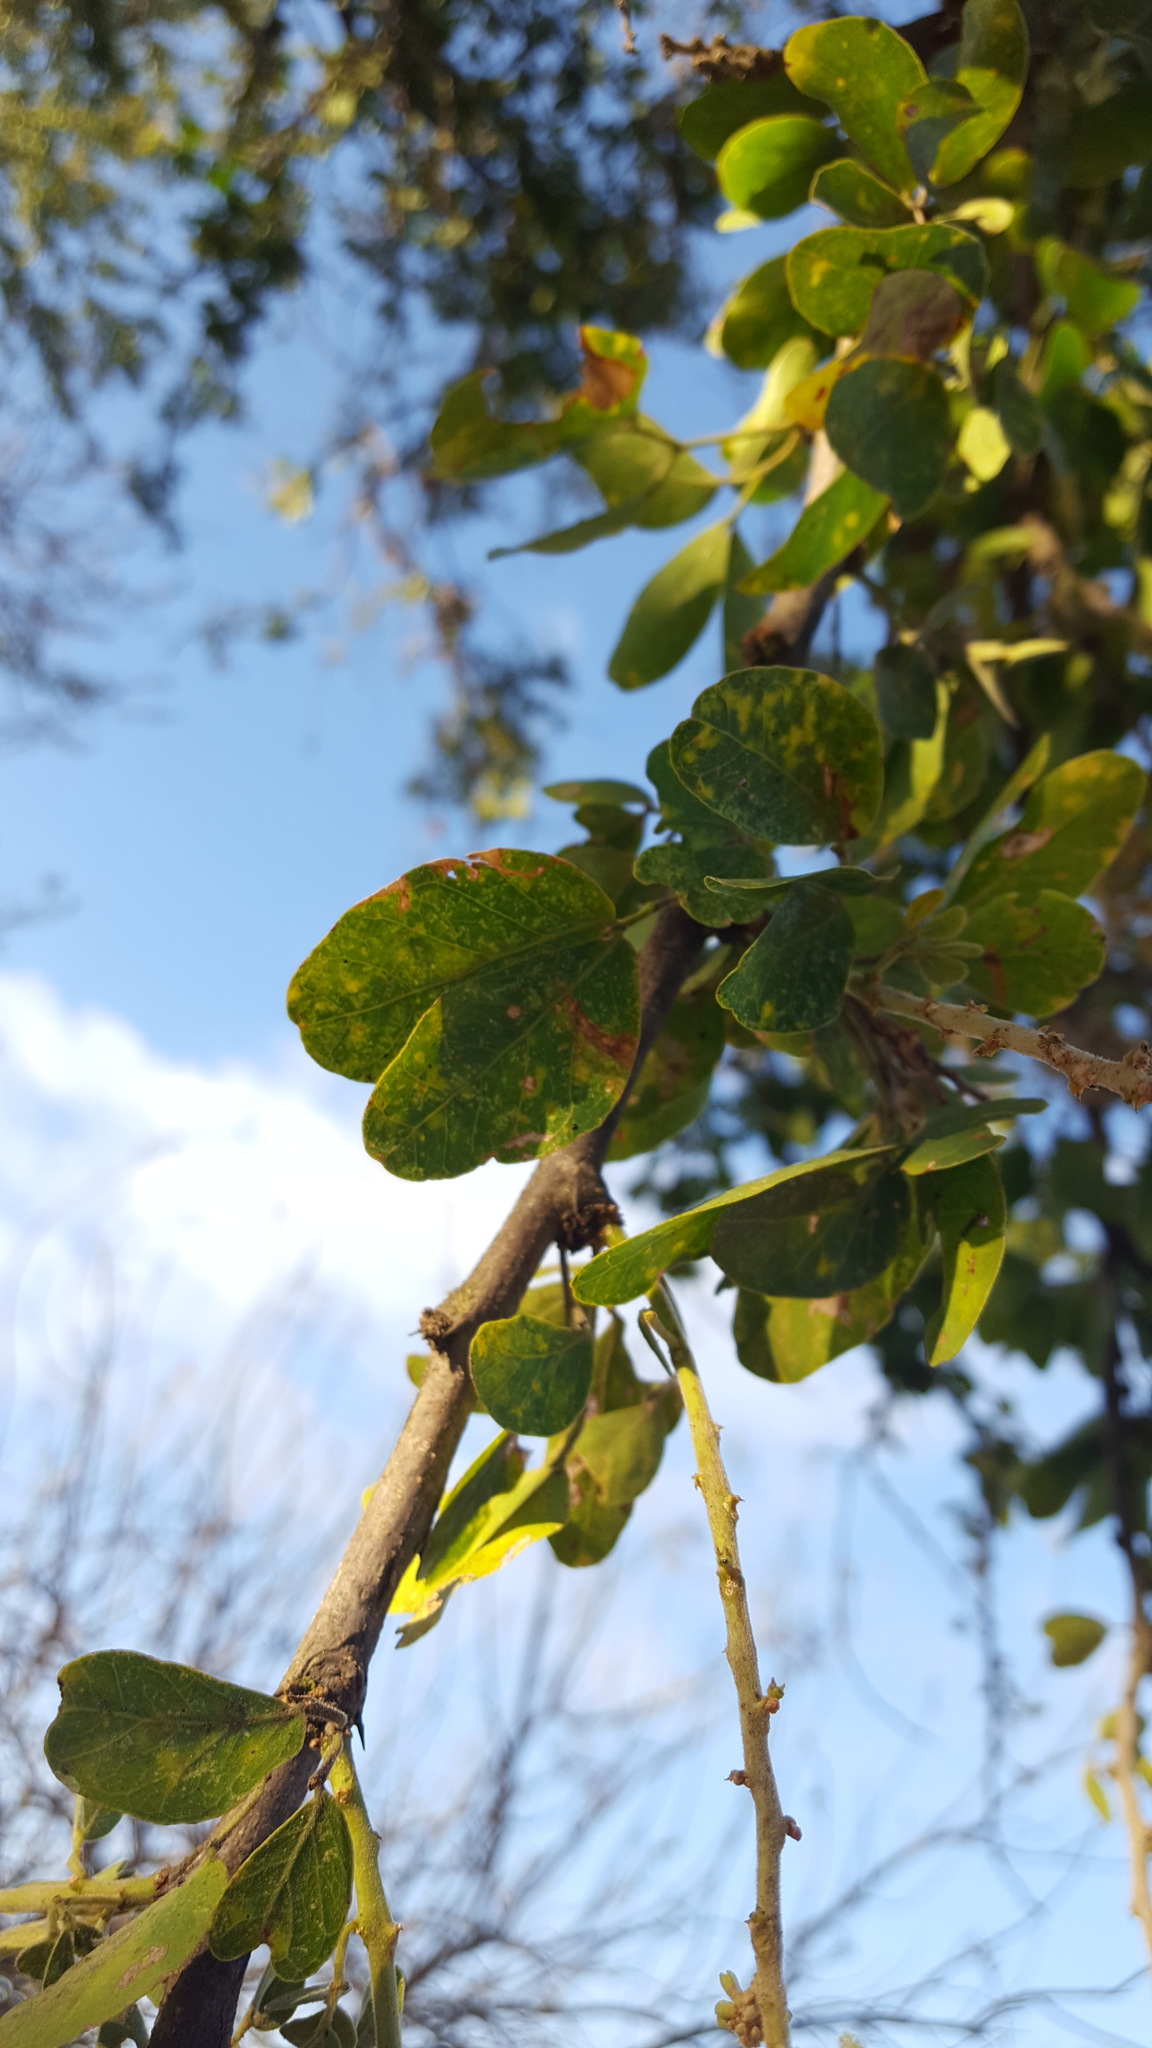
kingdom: Plantae
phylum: Tracheophyta
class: Magnoliopsida
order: Fabales
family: Fabaceae
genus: Pithecellobium
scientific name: Pithecellobium dulce
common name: Monkeypod
